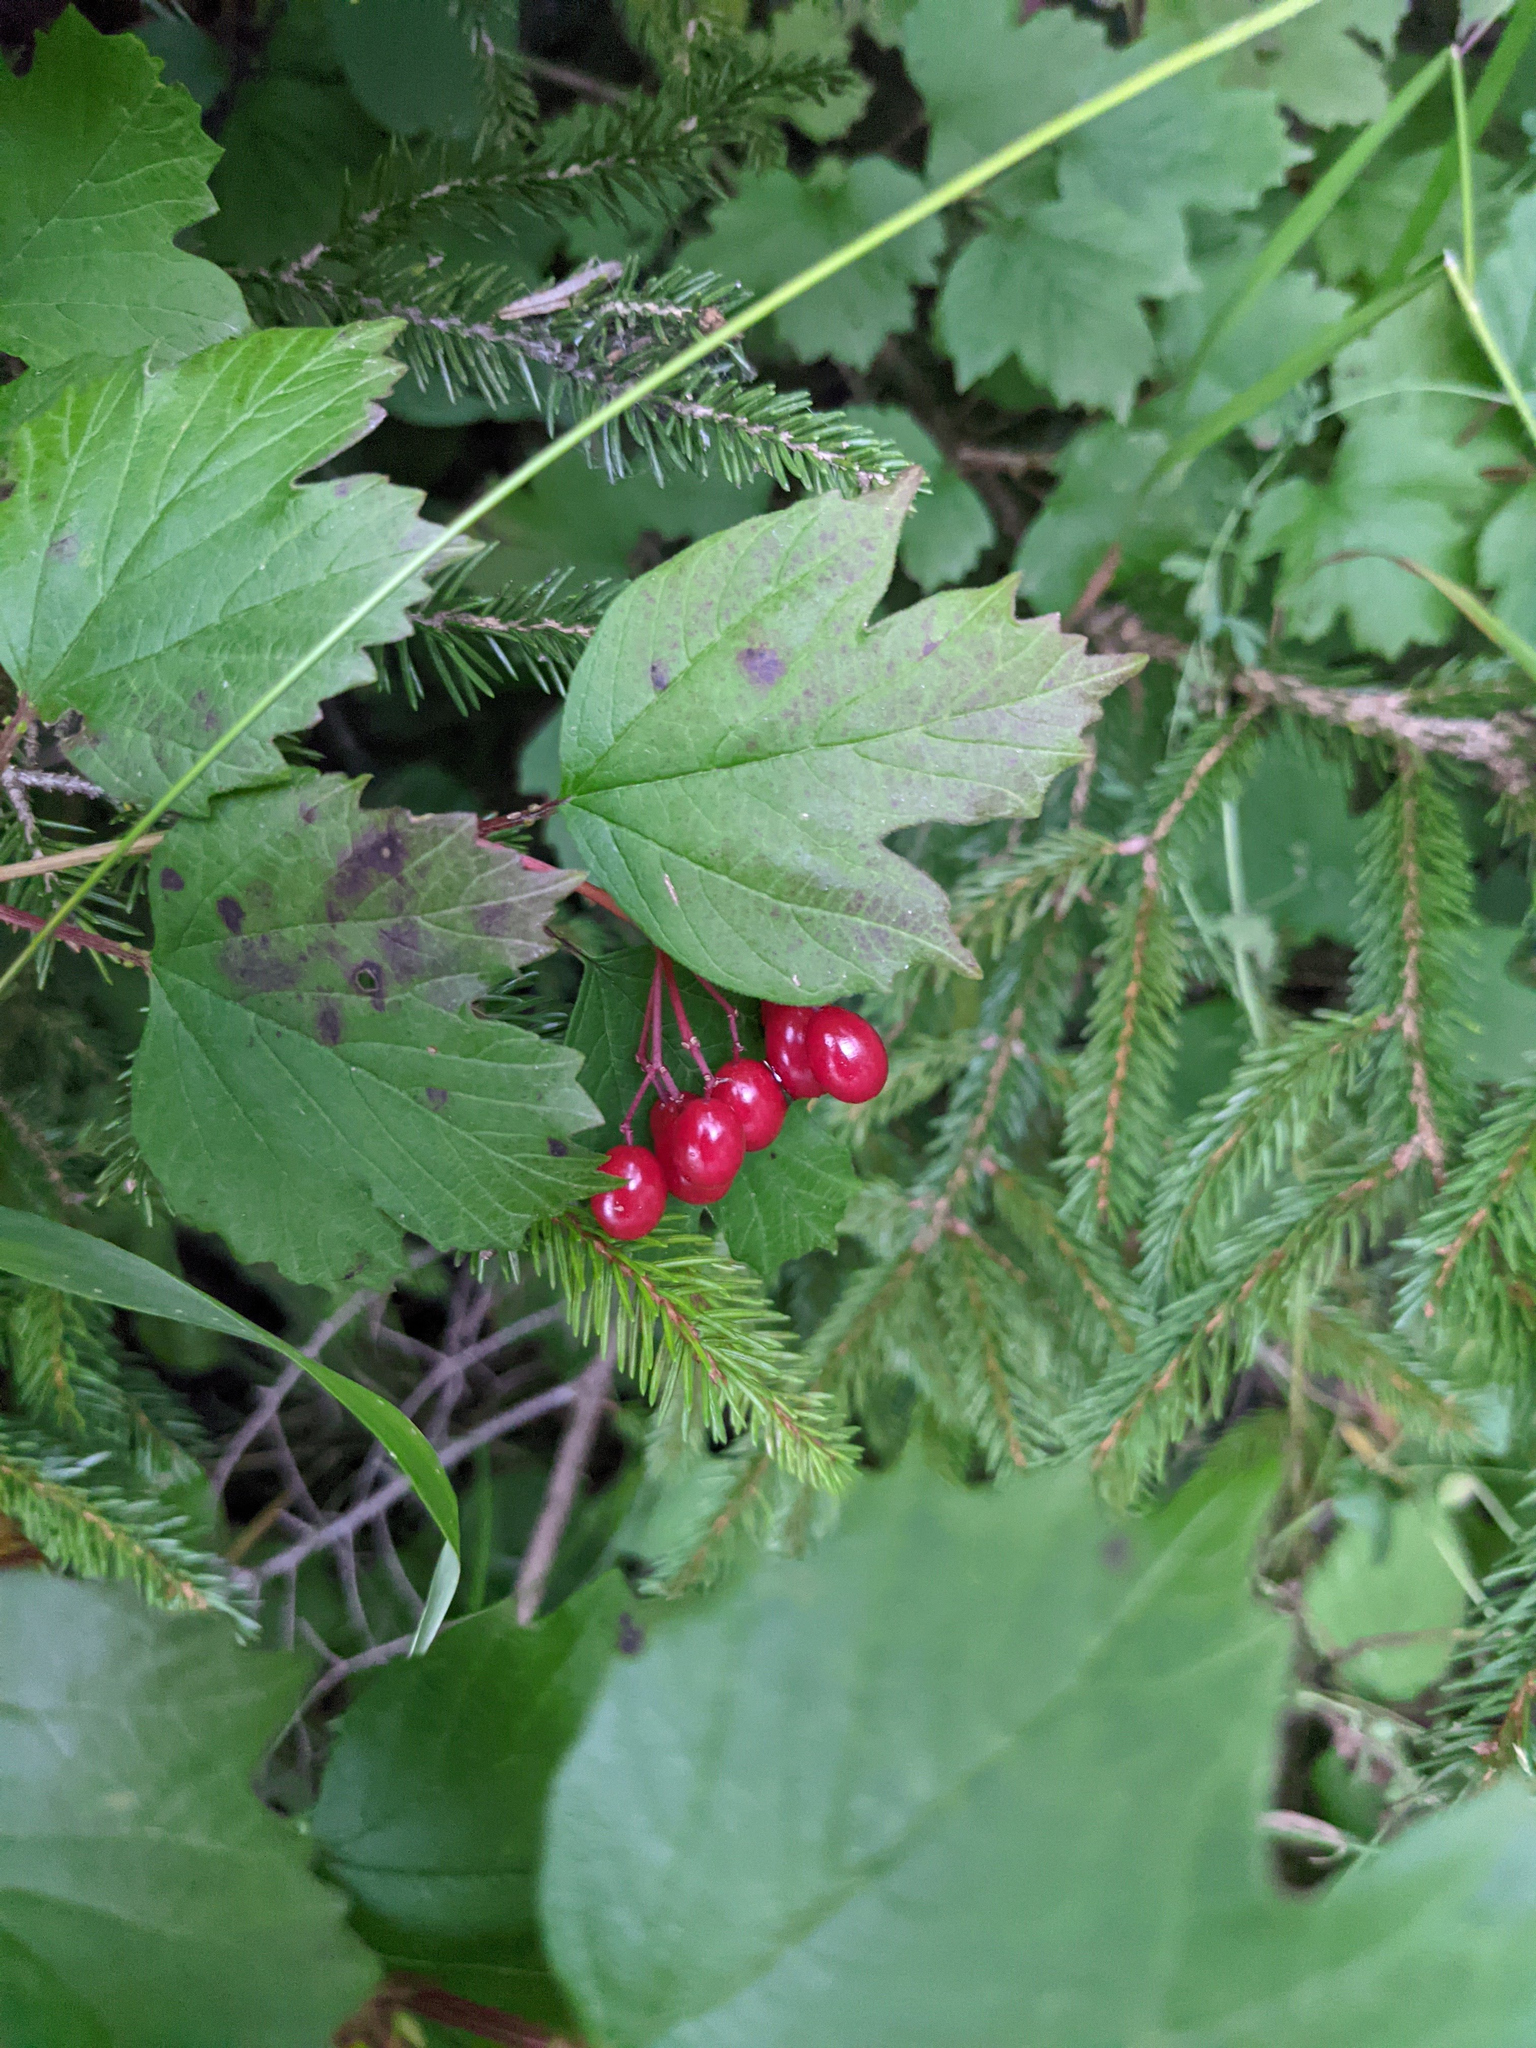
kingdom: Plantae
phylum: Tracheophyta
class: Magnoliopsida
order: Dipsacales
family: Viburnaceae
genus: Viburnum
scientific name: Viburnum opulus
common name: Guelder-rose
